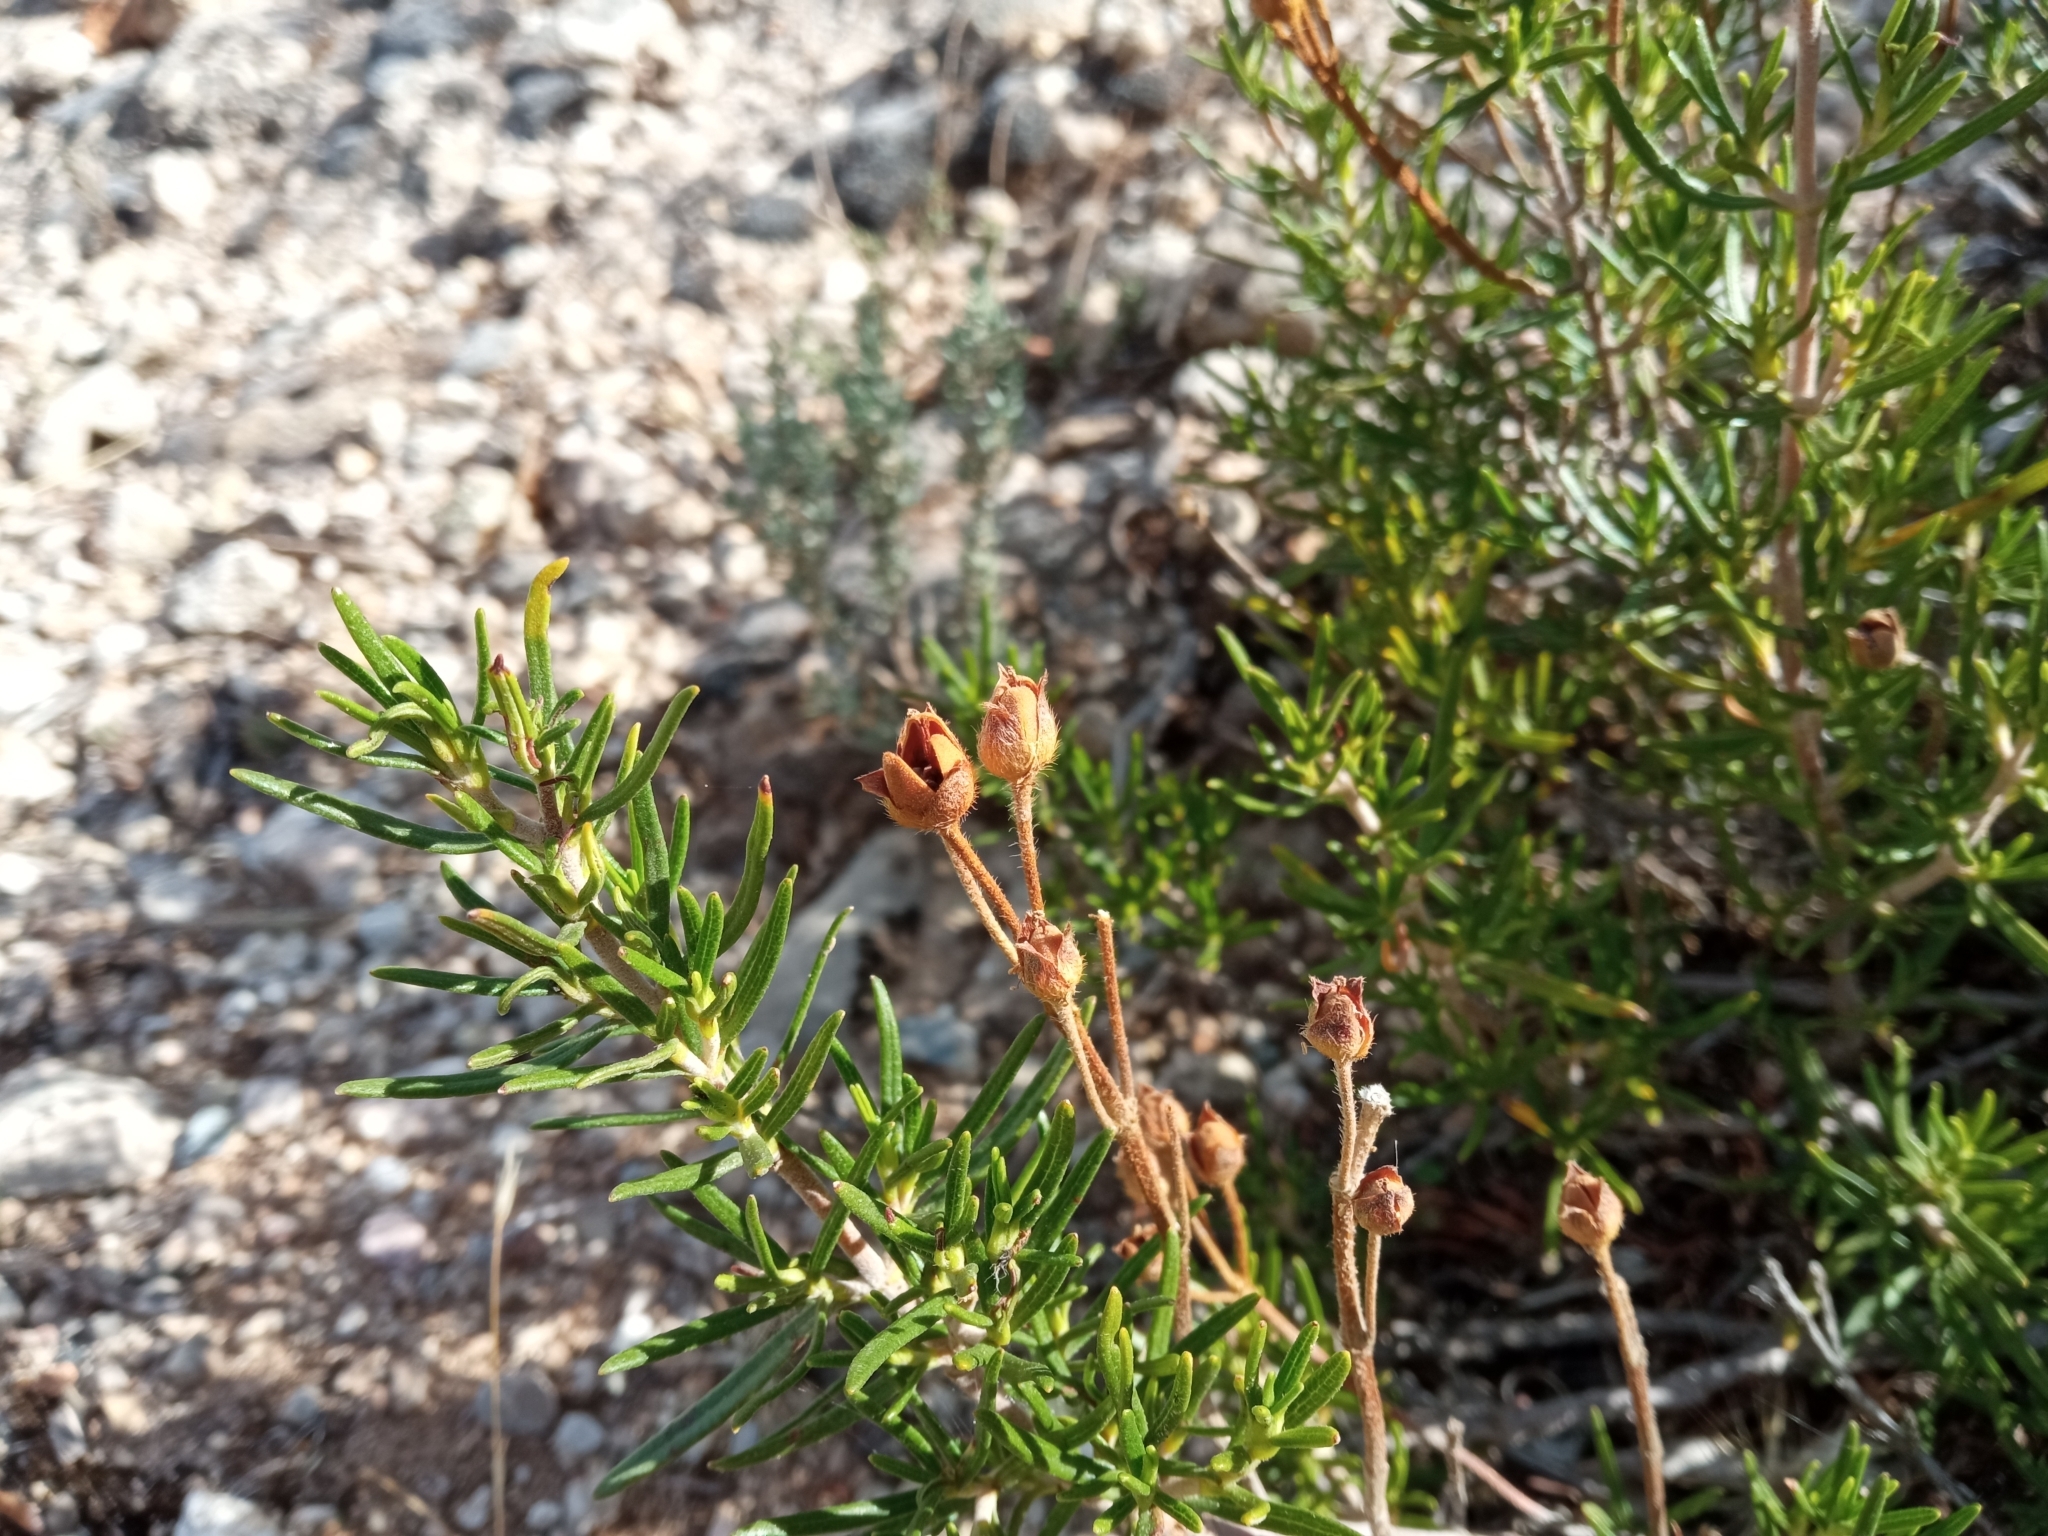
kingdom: Plantae
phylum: Tracheophyta
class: Magnoliopsida
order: Malvales
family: Cistaceae
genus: Cistus
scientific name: Cistus clusii
